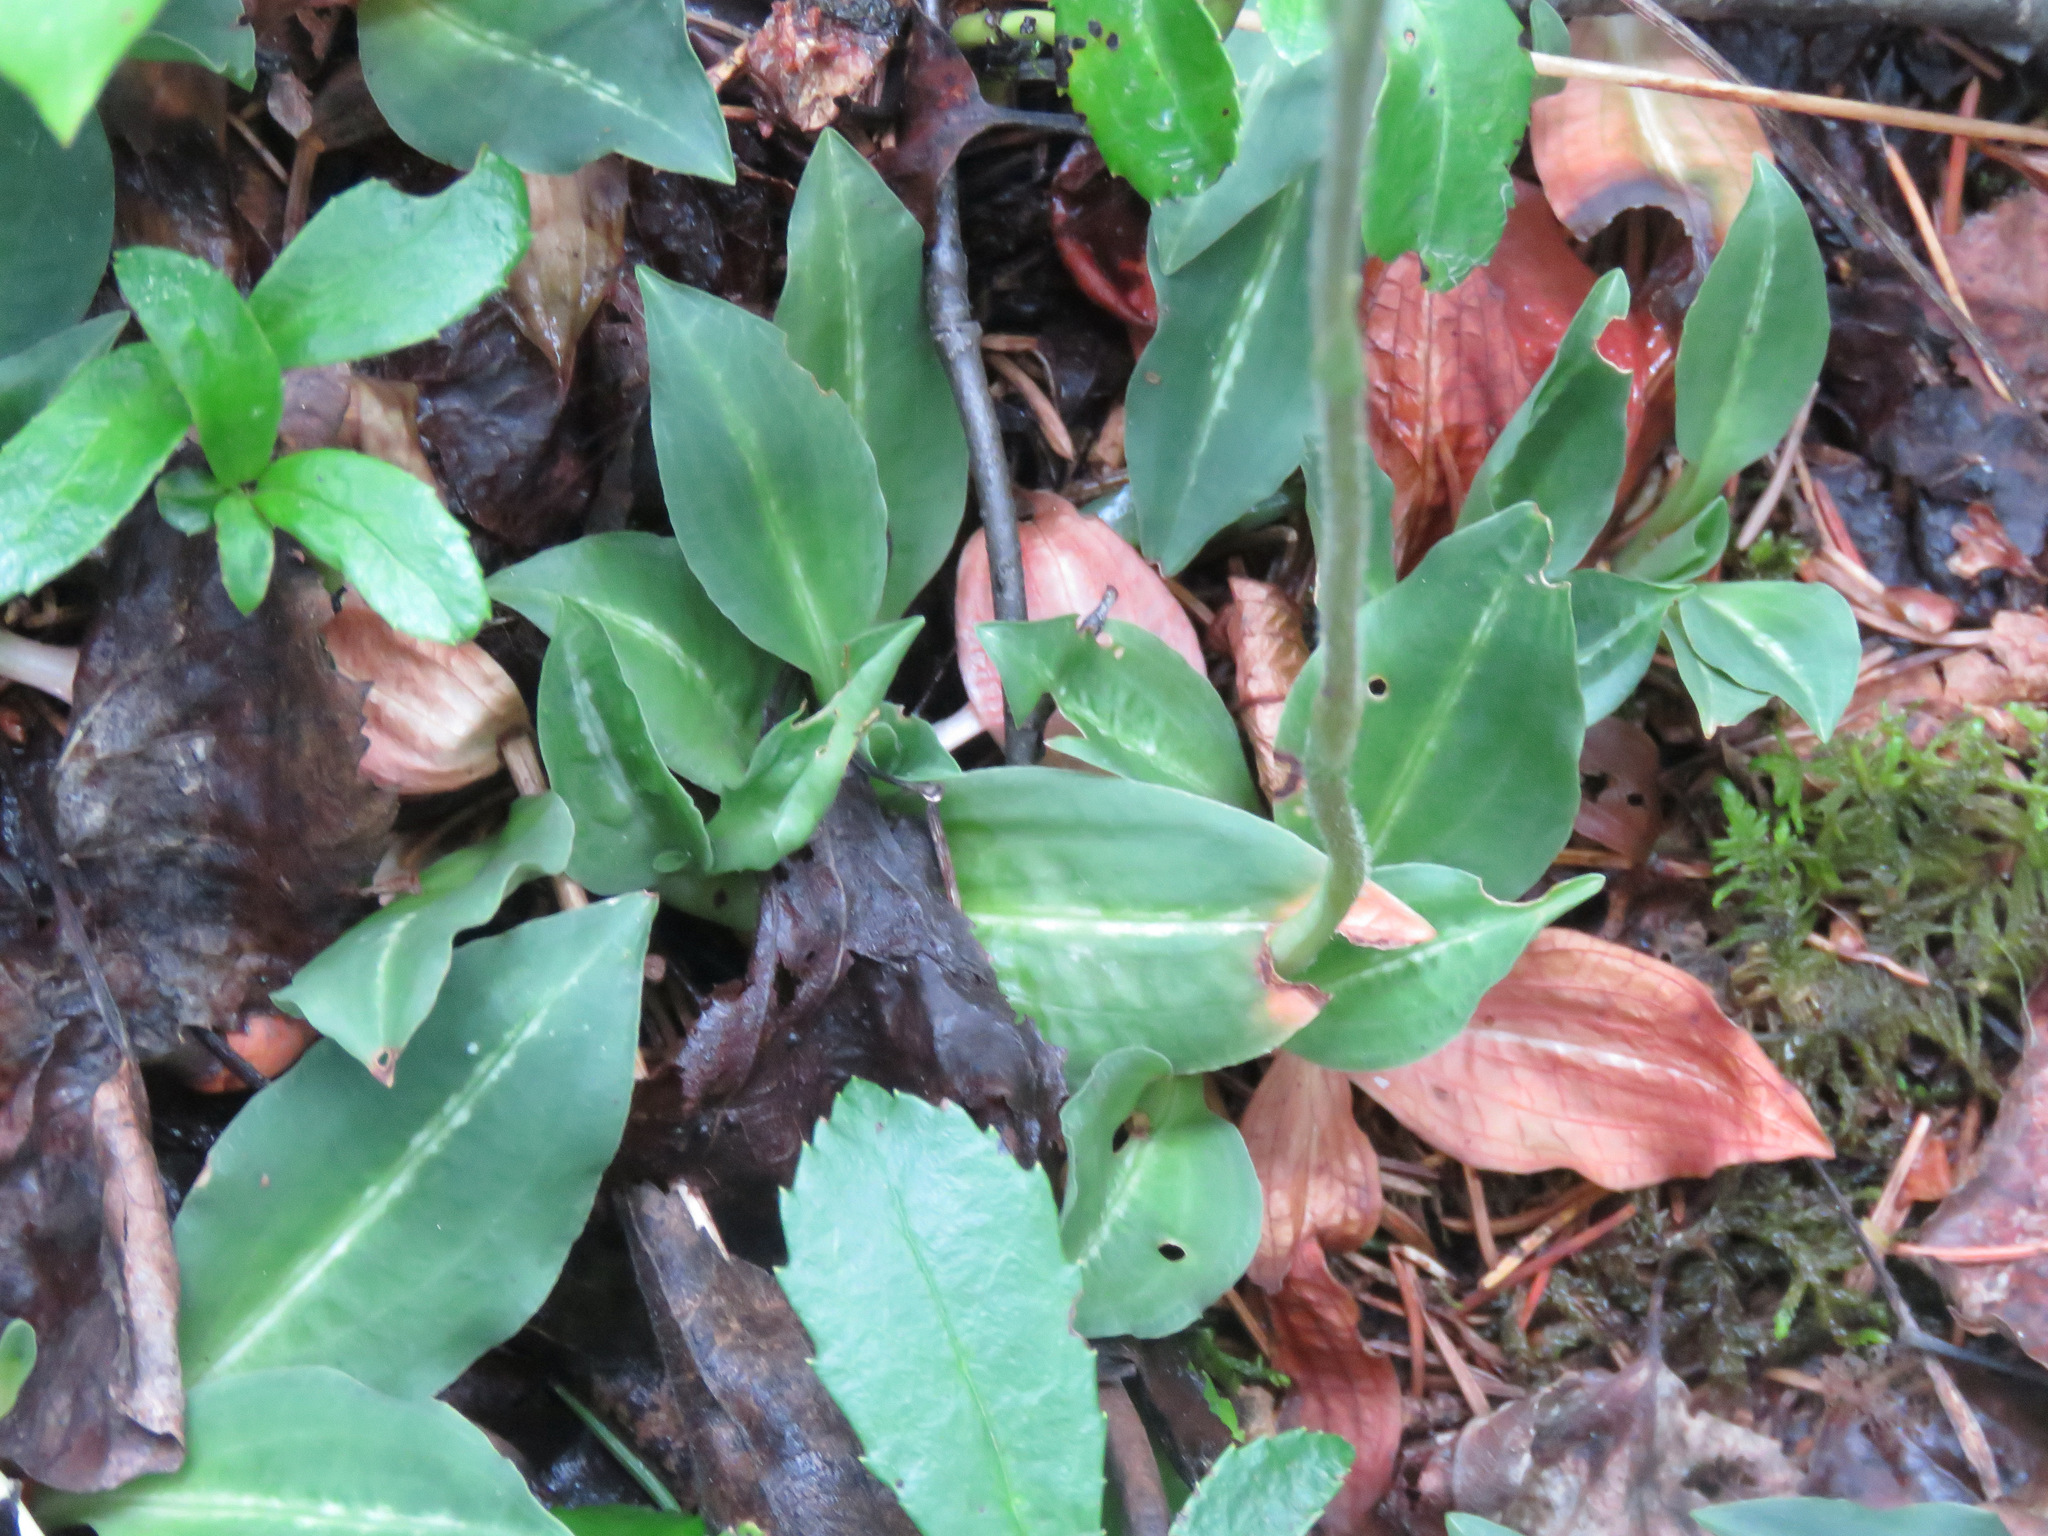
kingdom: Plantae
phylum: Tracheophyta
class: Liliopsida
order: Asparagales
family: Orchidaceae
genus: Goodyera
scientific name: Goodyera oblongifolia
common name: Giant rattlesnake-plantain
